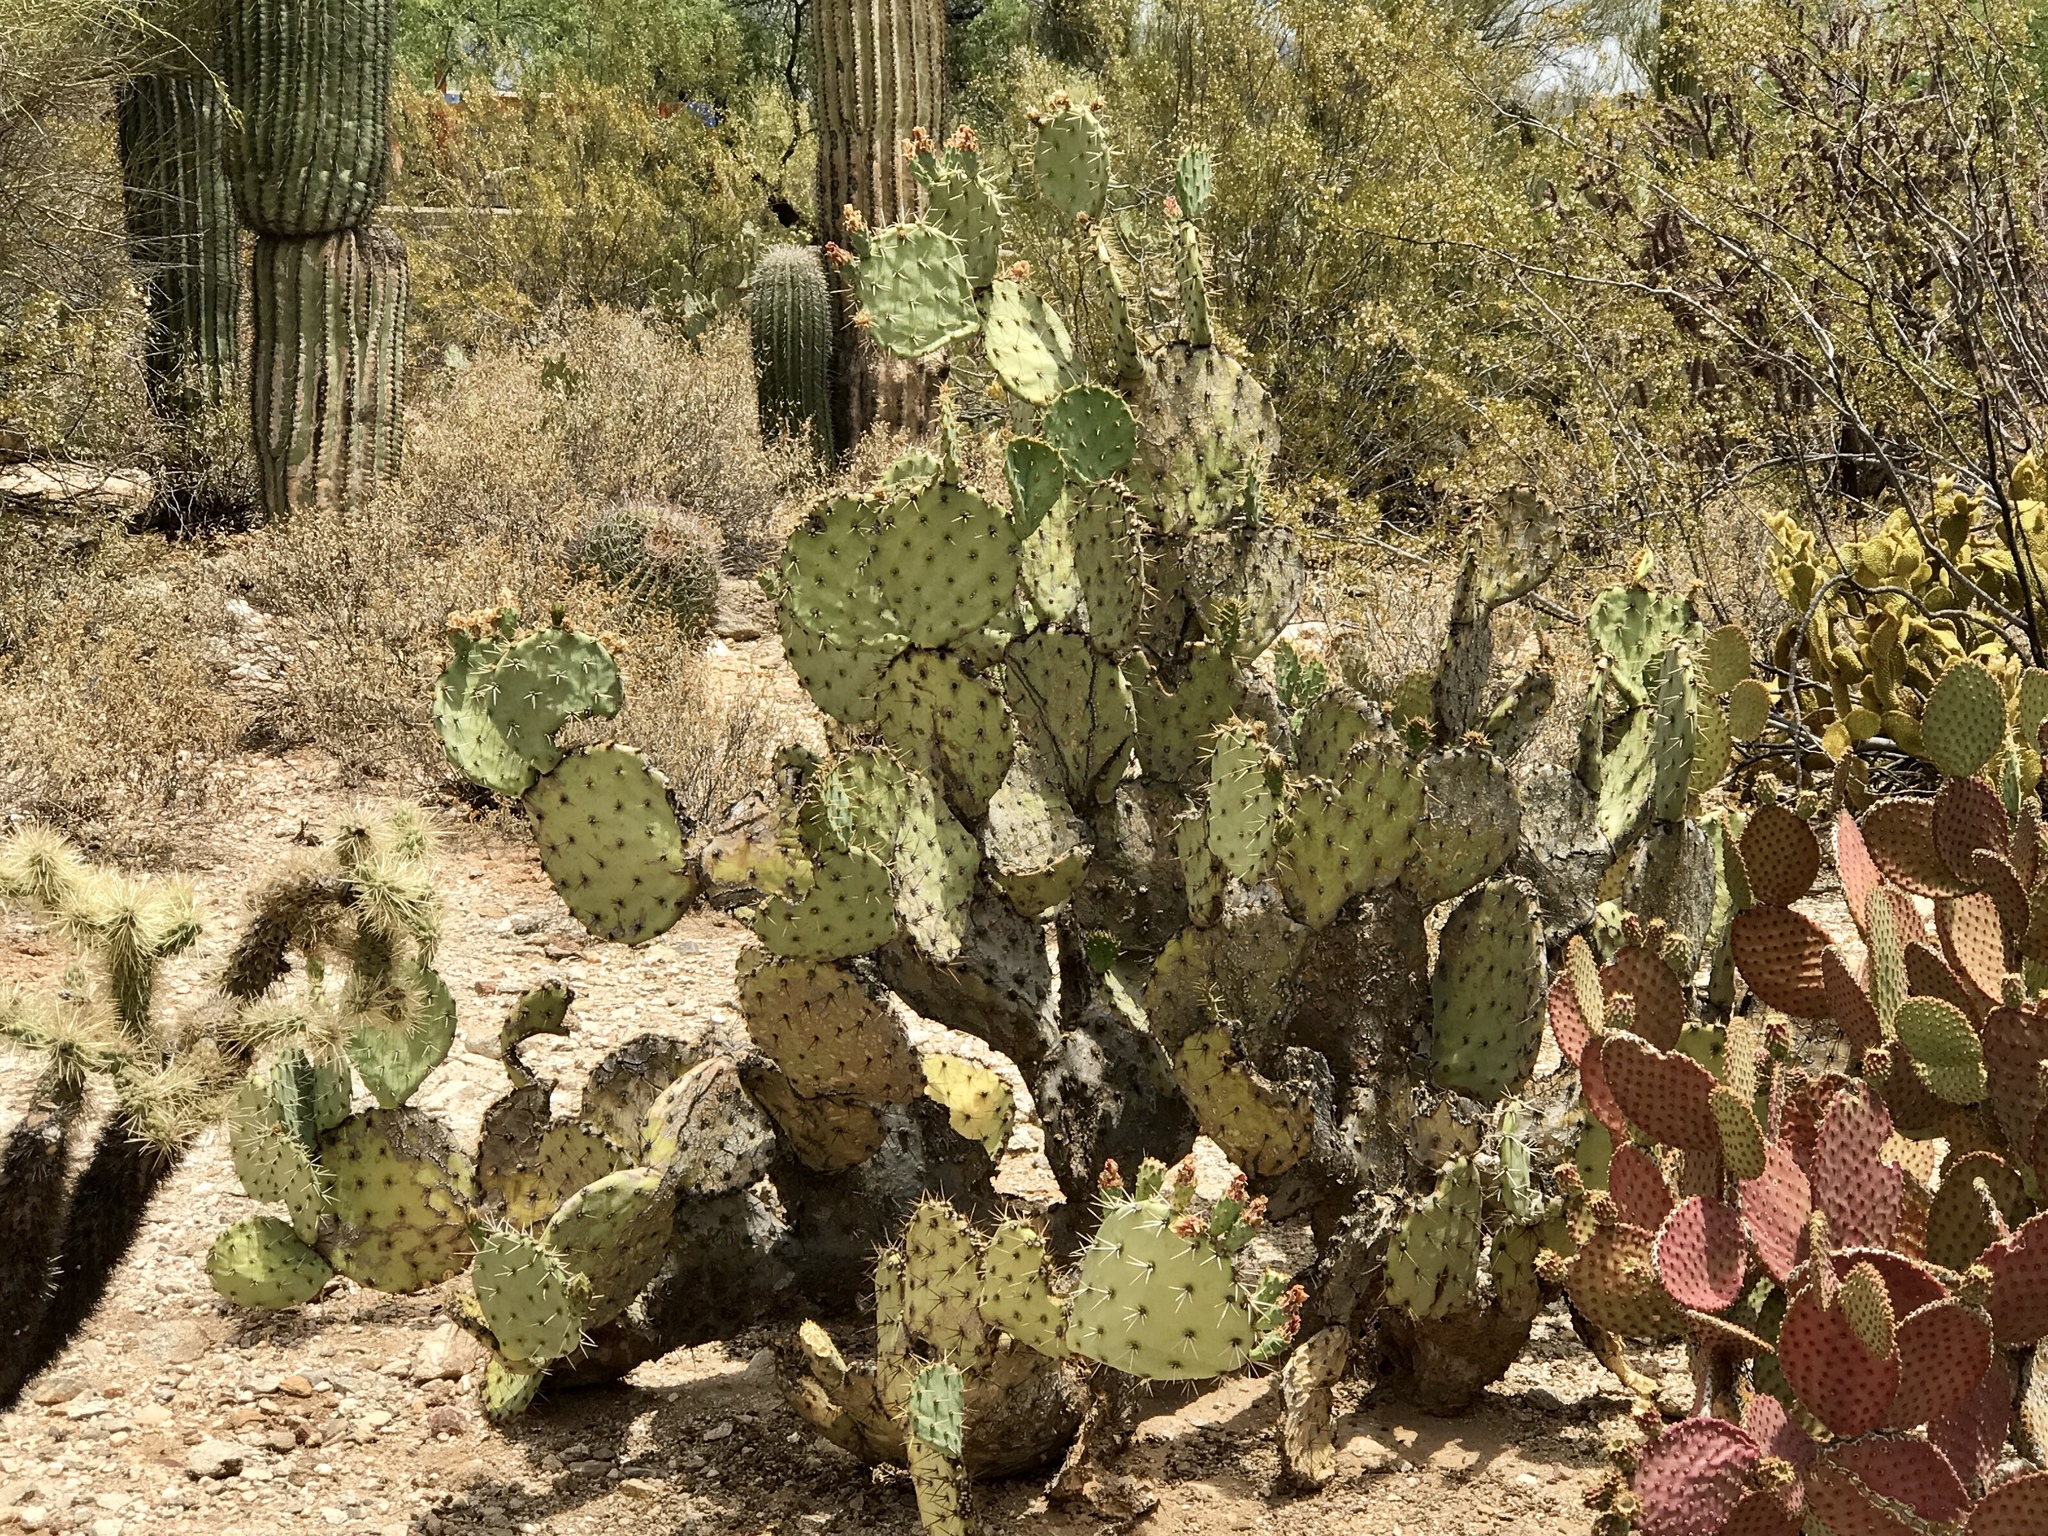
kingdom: Plantae
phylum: Tracheophyta
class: Magnoliopsida
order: Caryophyllales
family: Cactaceae
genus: Opuntia
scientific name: Opuntia engelmannii
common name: Cactus-apple
